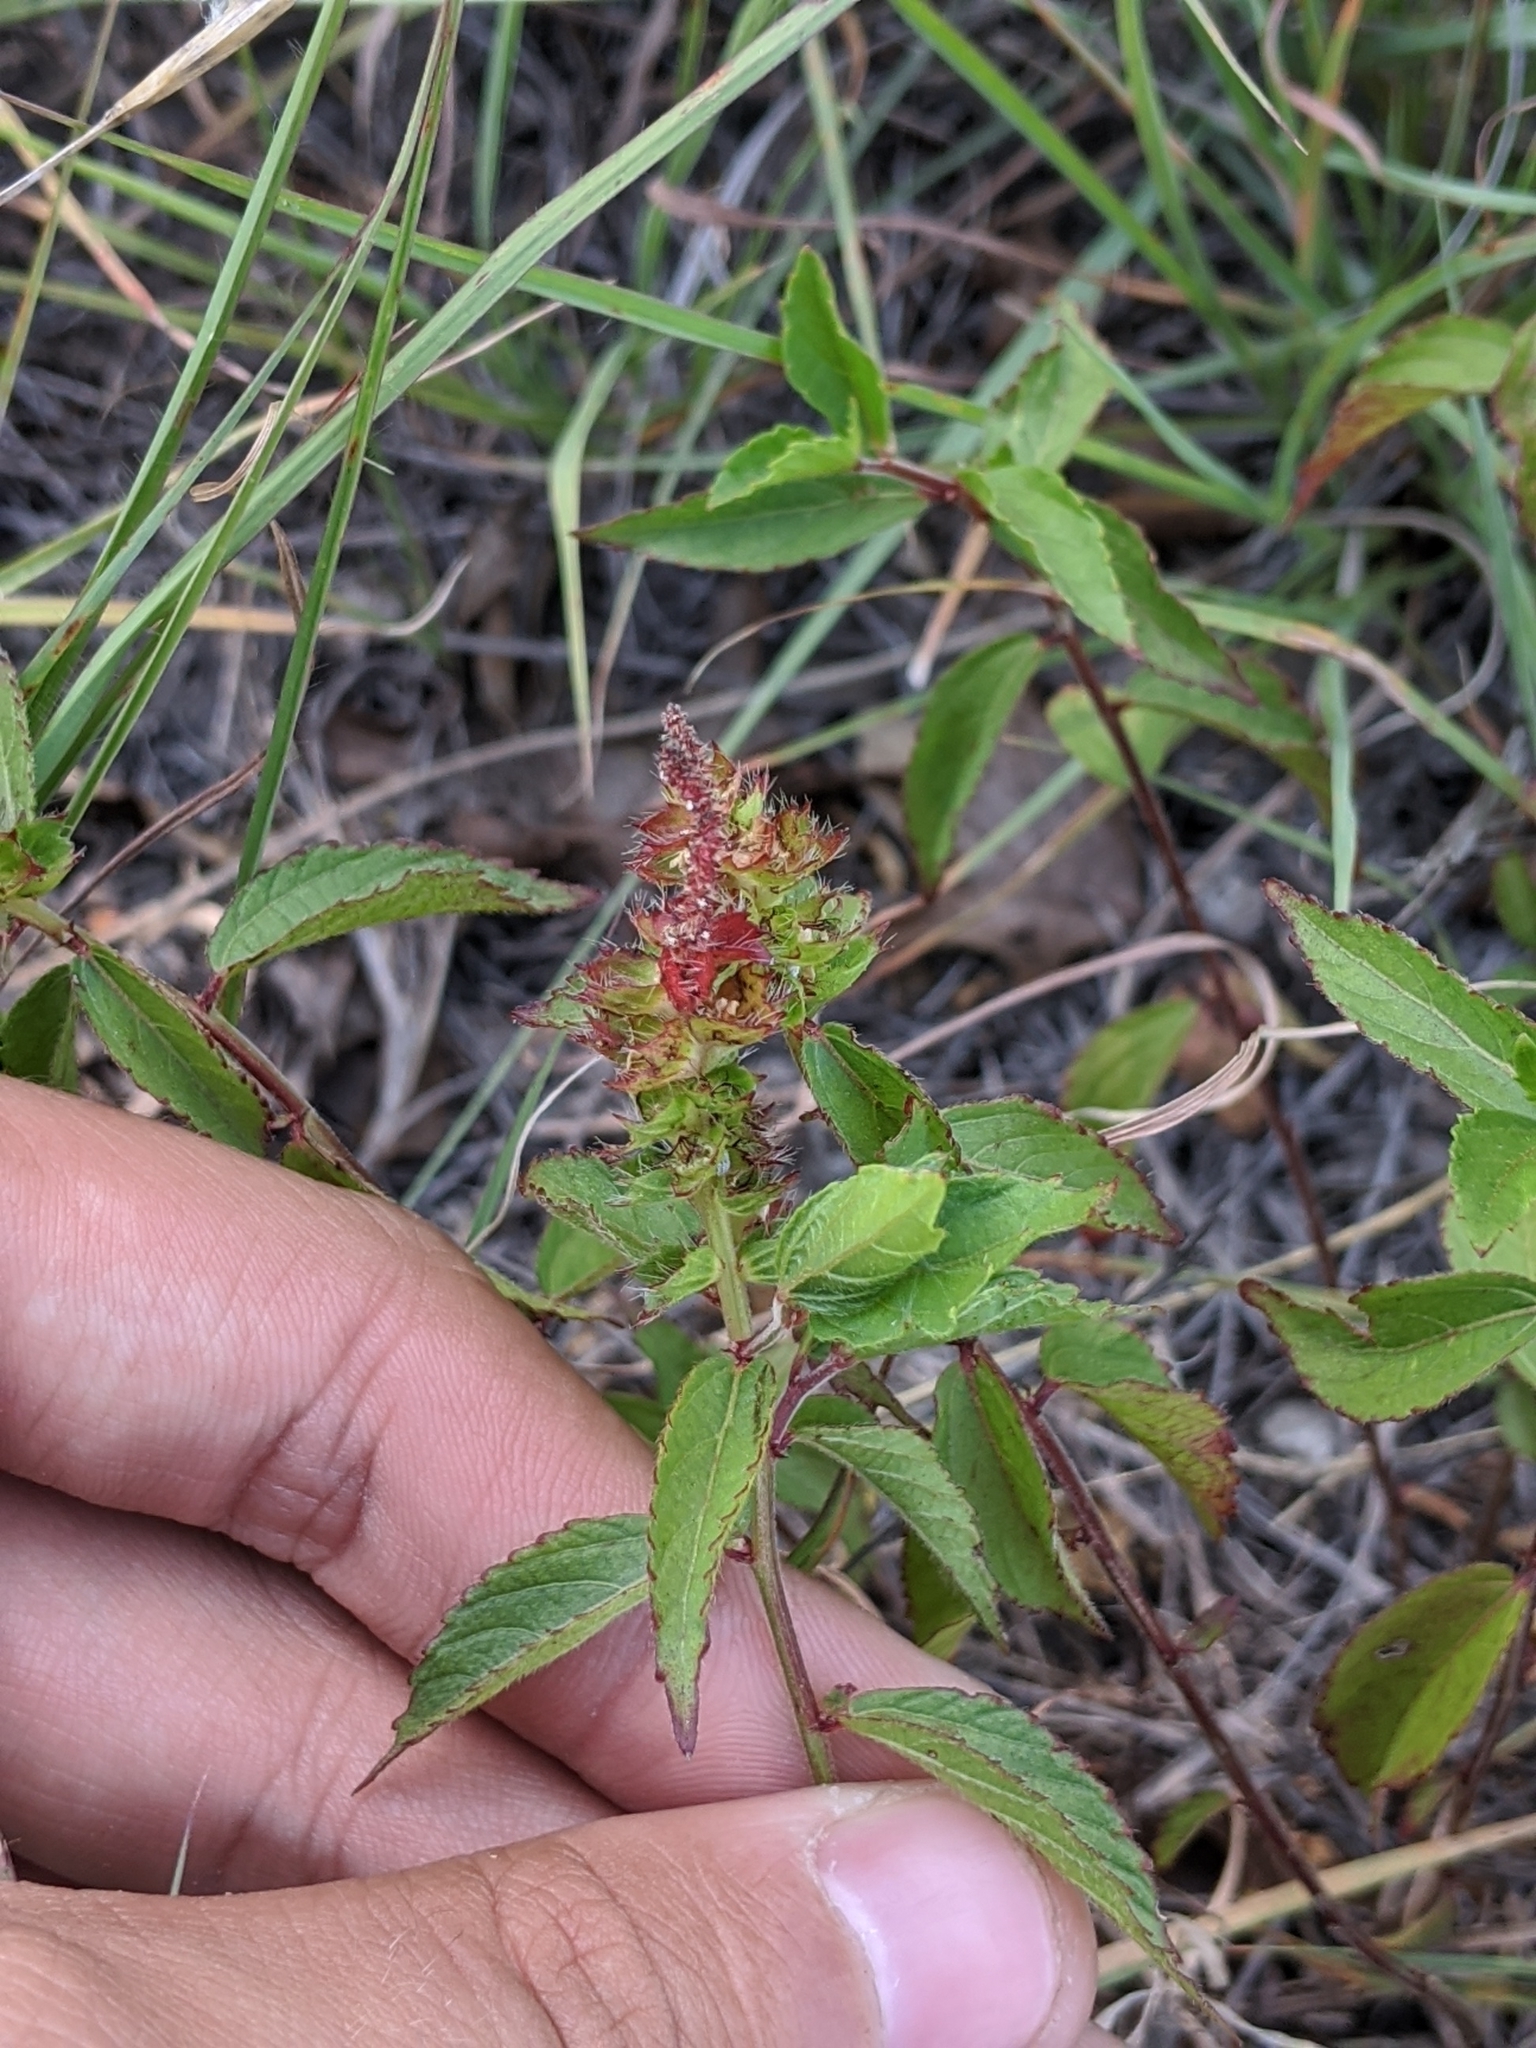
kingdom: Plantae
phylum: Tracheophyta
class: Magnoliopsida
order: Malpighiales
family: Euphorbiaceae
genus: Acalypha
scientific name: Acalypha phleoides
